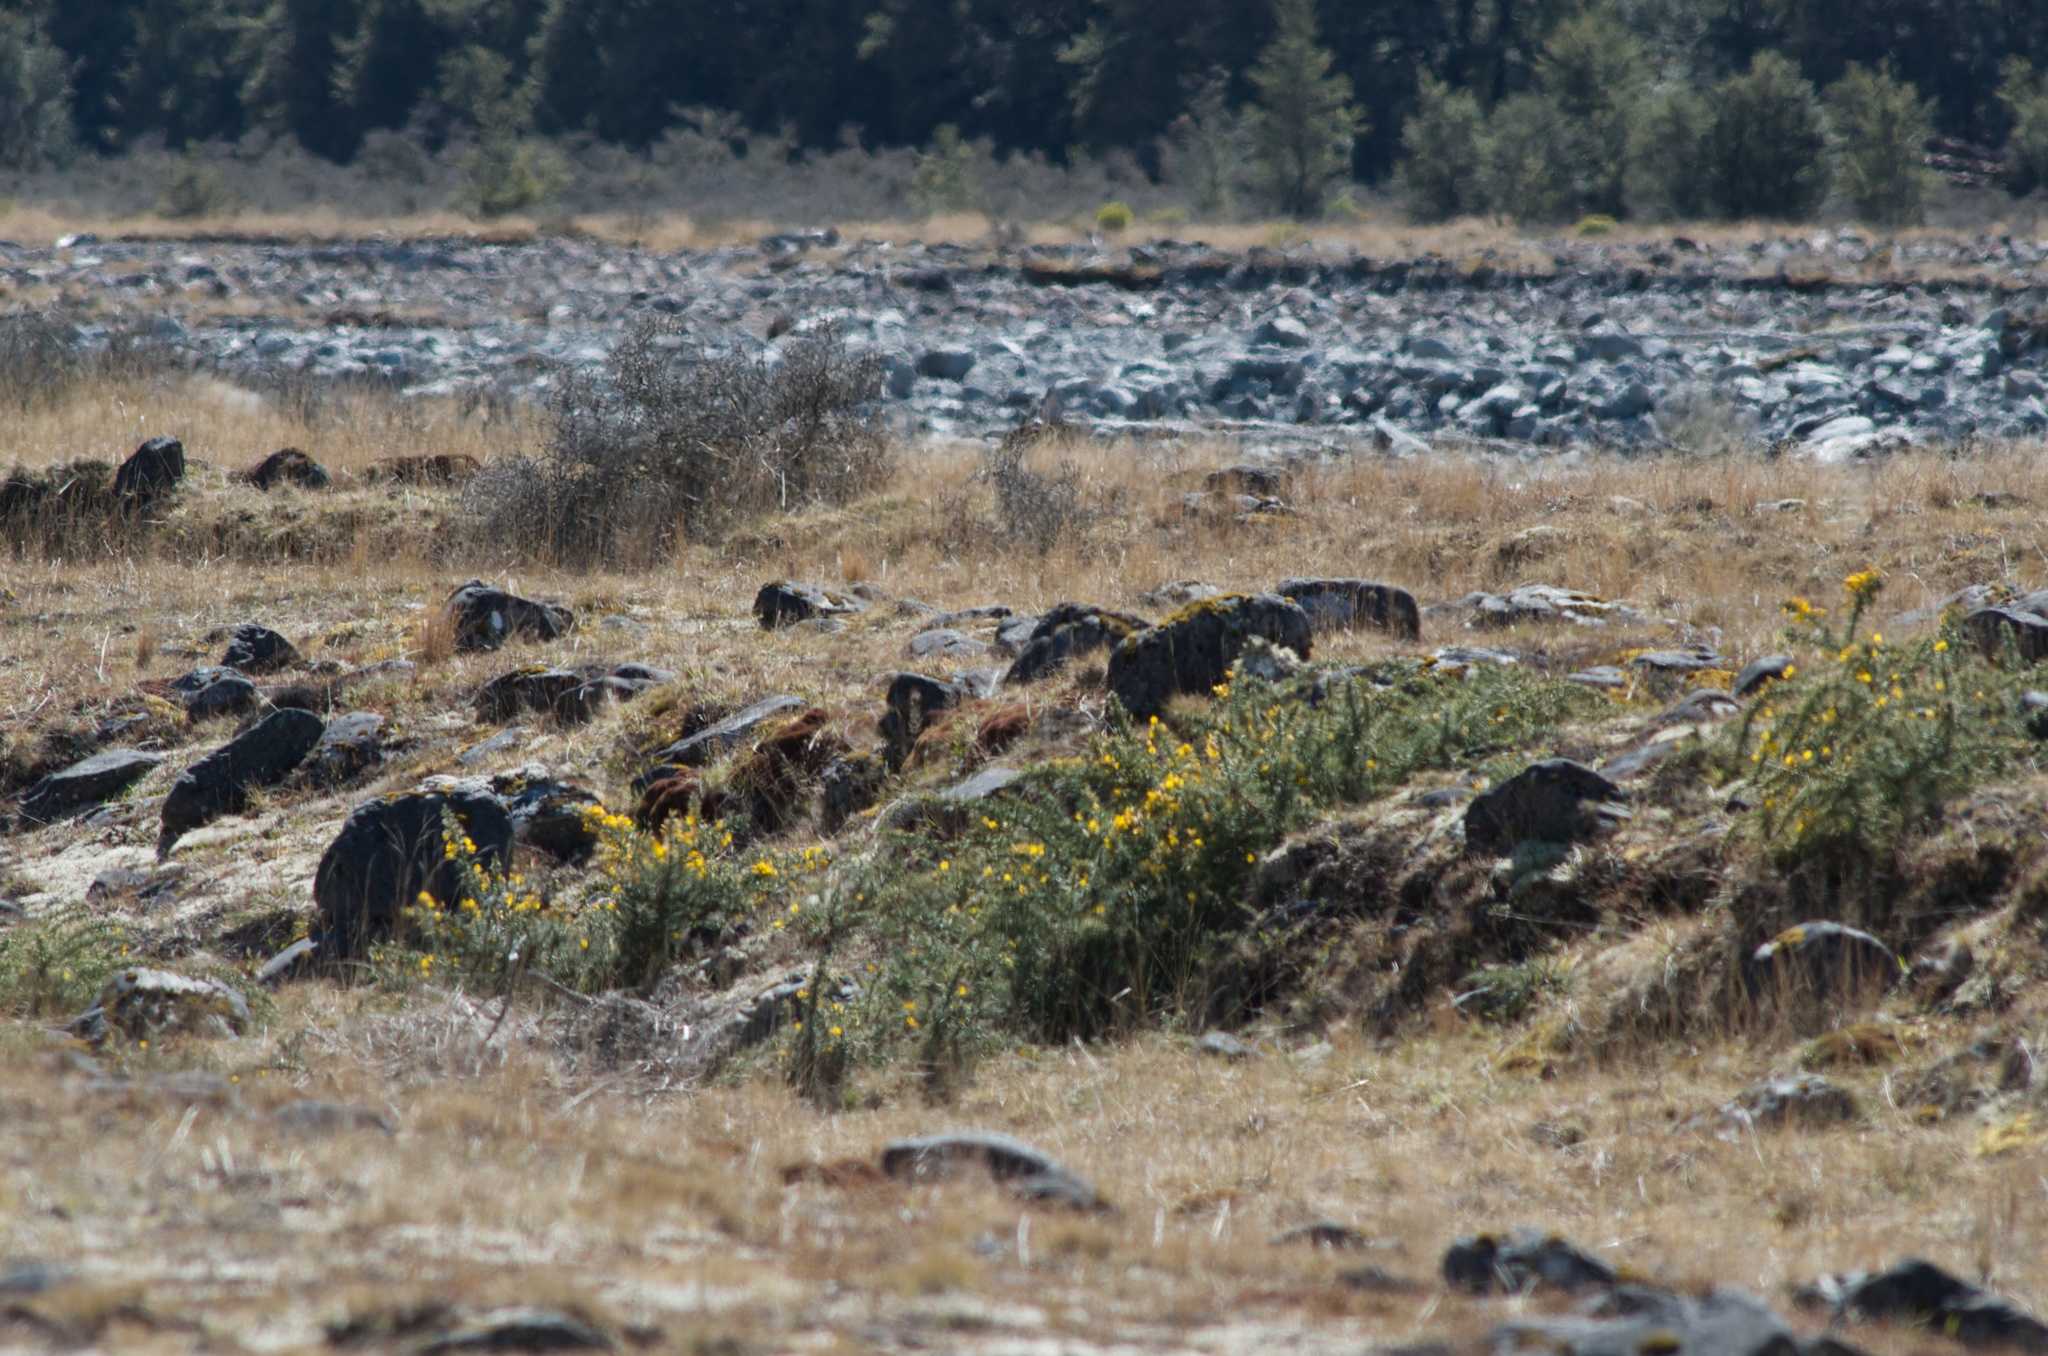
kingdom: Plantae
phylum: Tracheophyta
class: Magnoliopsida
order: Fabales
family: Fabaceae
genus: Ulex
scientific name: Ulex europaeus
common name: Common gorse
